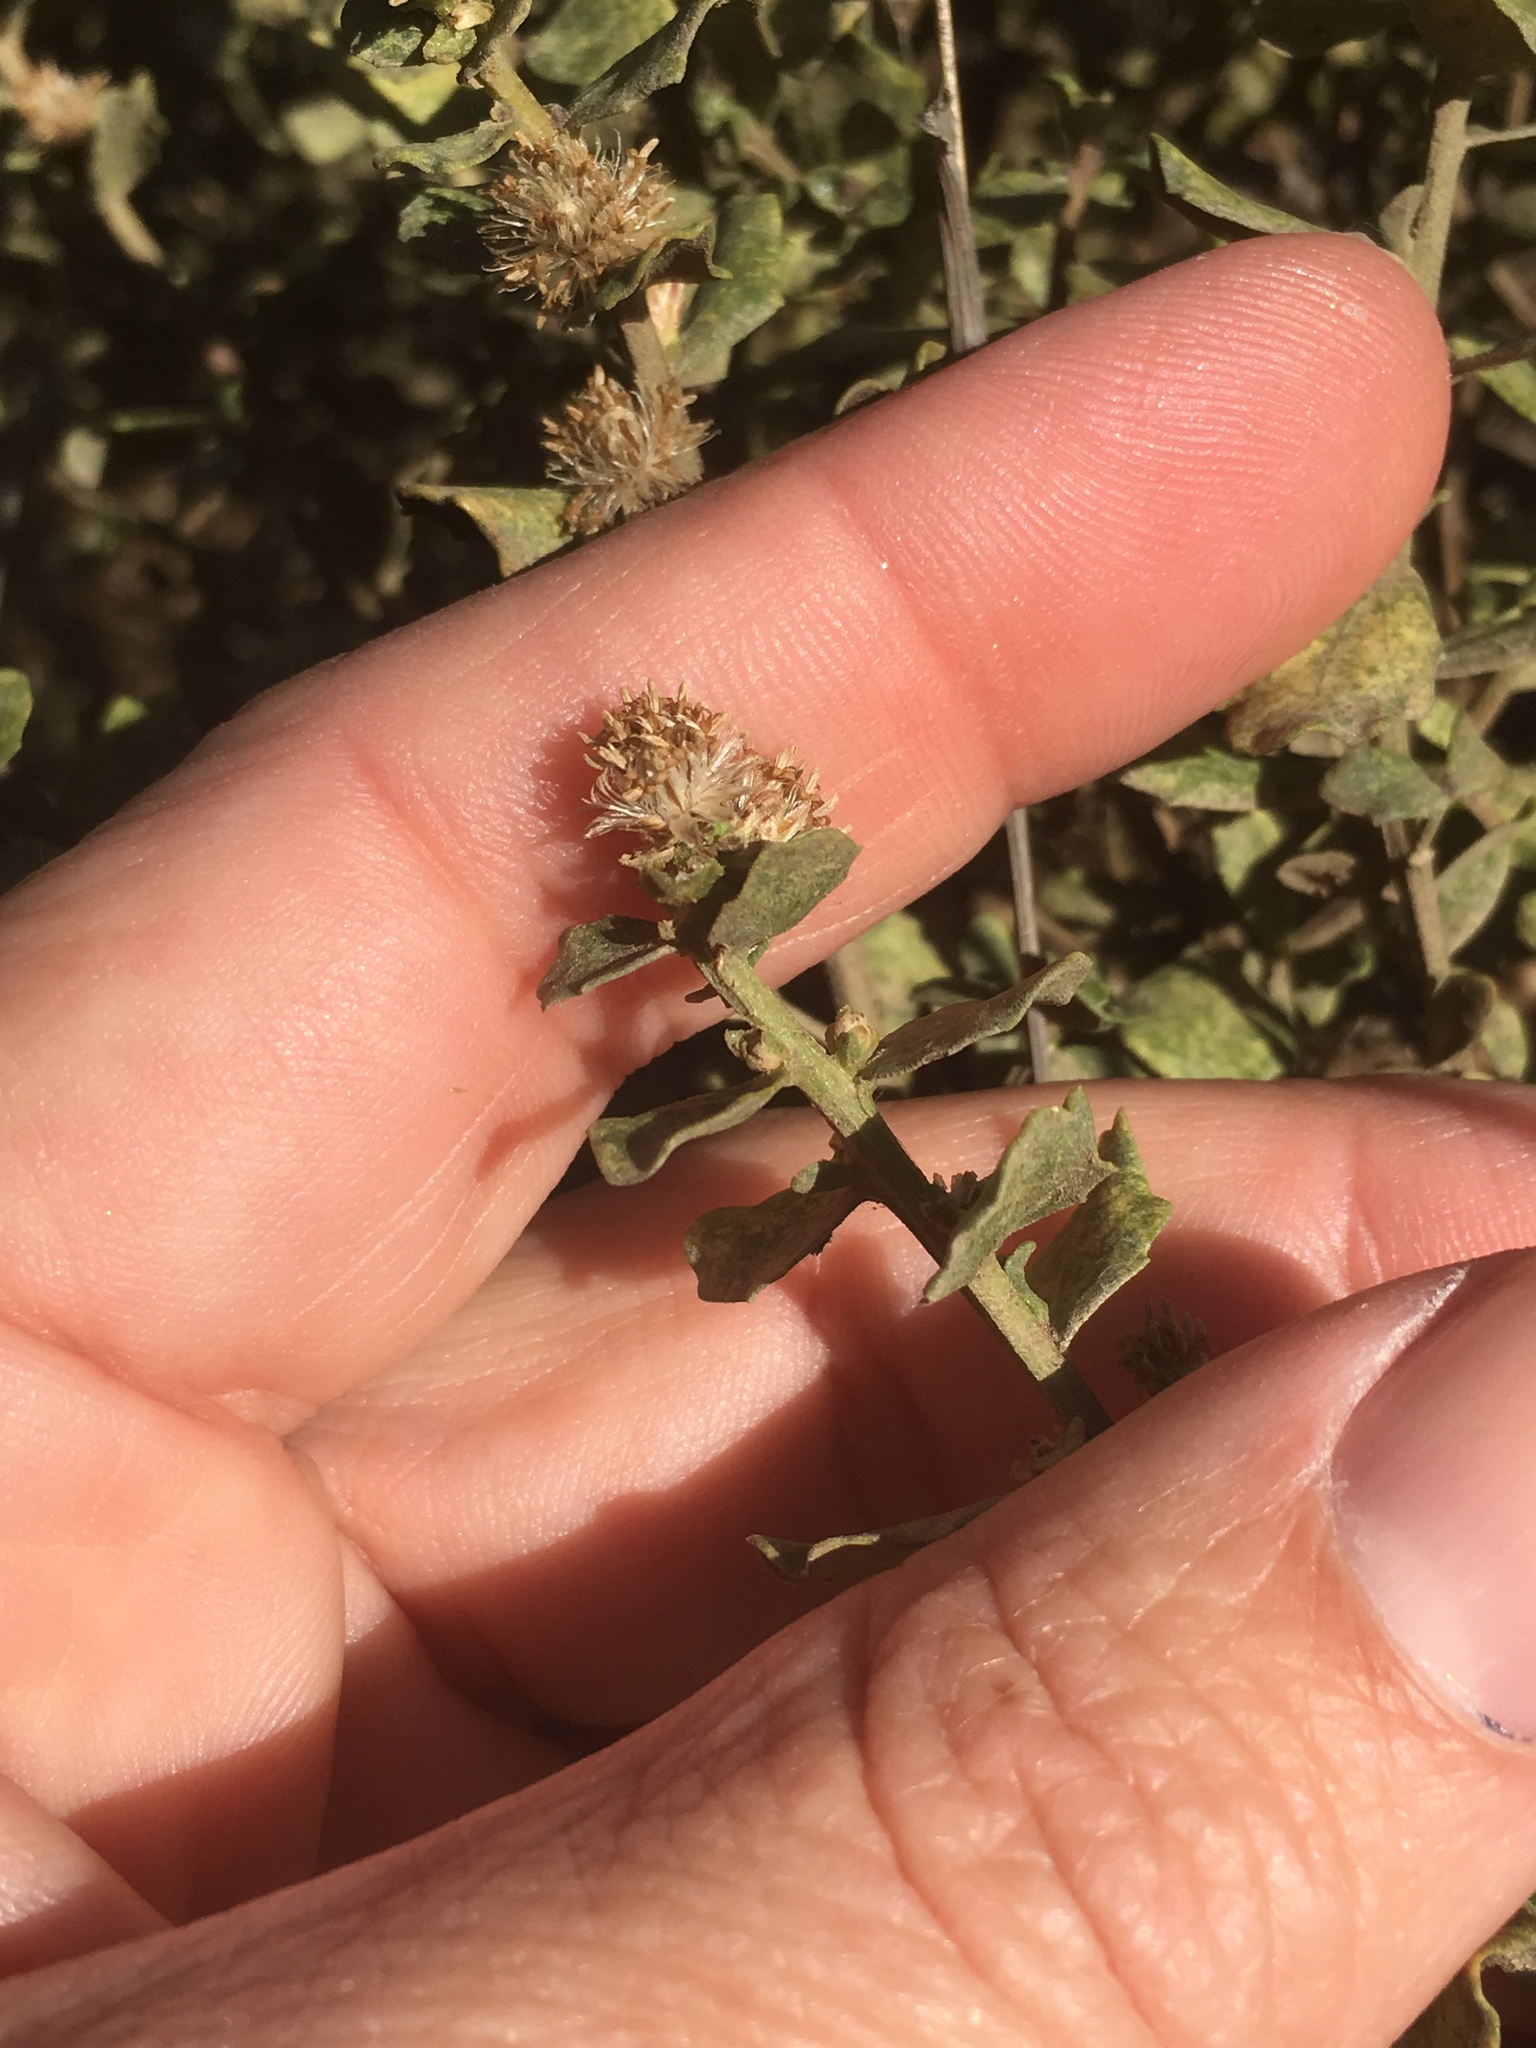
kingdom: Plantae
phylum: Tracheophyta
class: Magnoliopsida
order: Asterales
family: Asteraceae
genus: Baccharis
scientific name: Baccharis pilularis
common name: Coyotebrush
